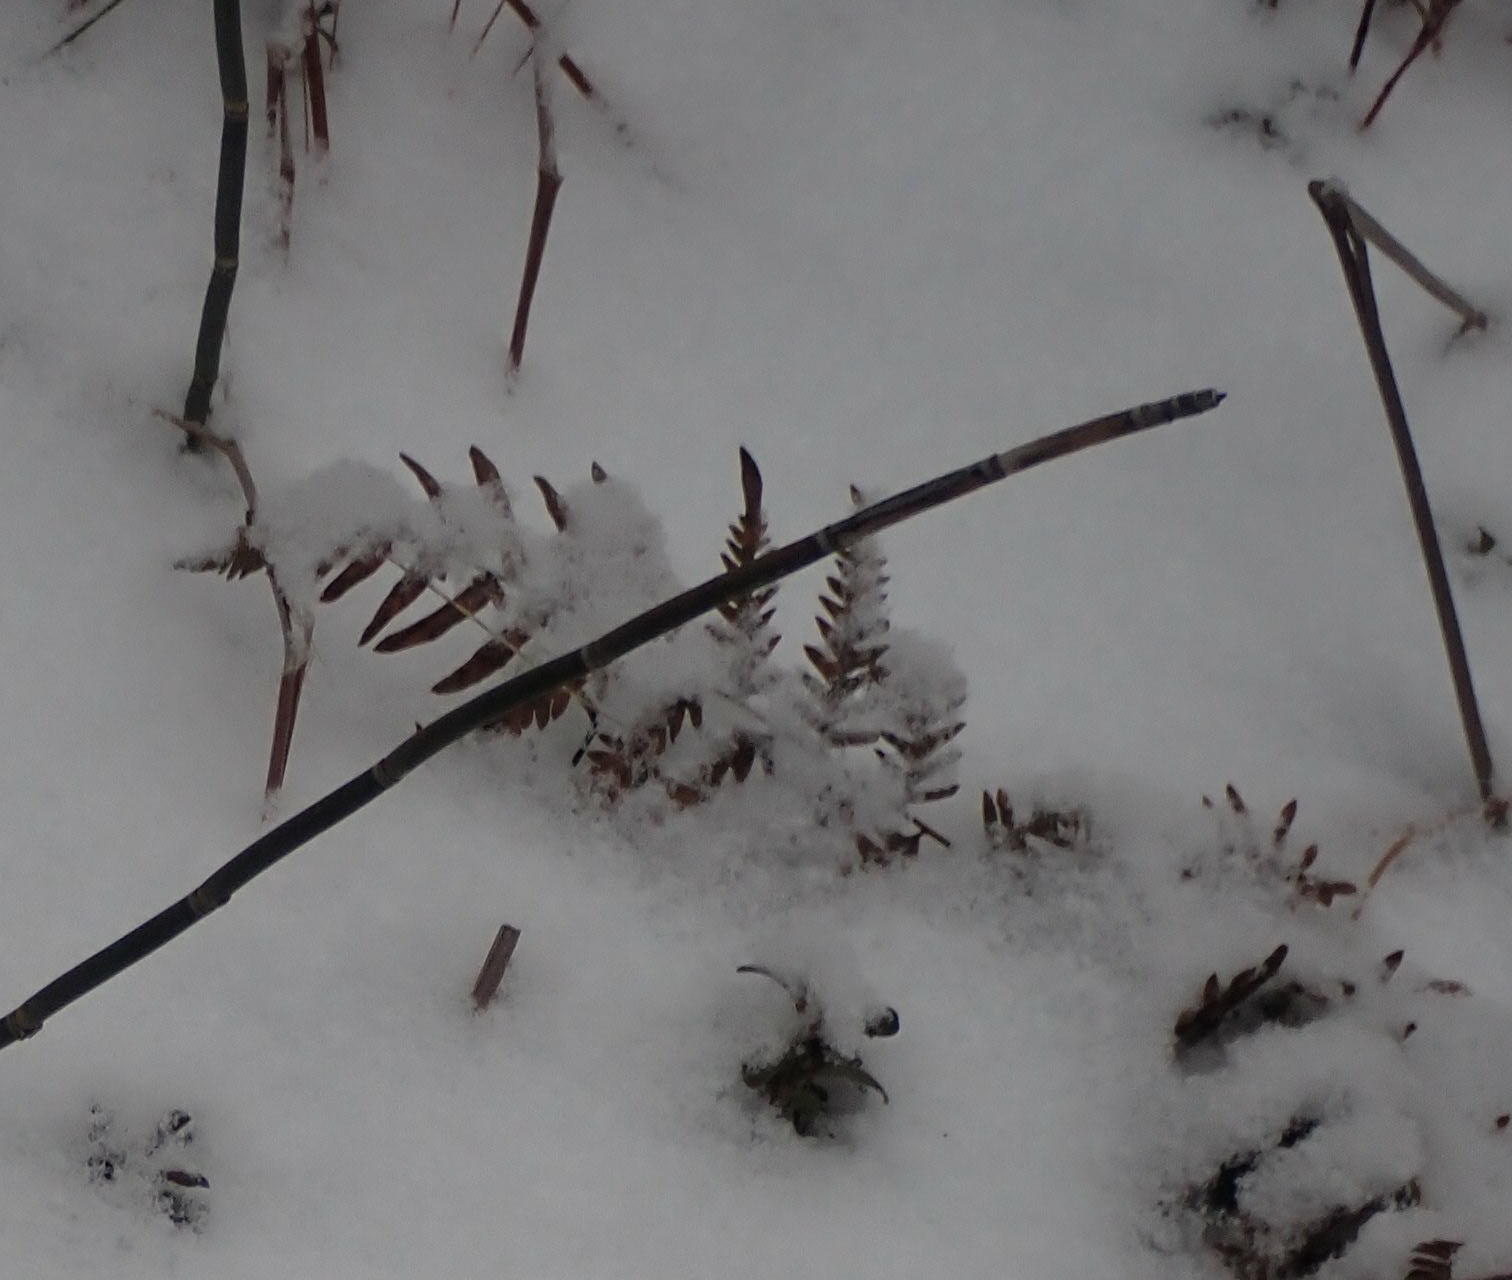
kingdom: Plantae
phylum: Tracheophyta
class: Polypodiopsida
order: Polypodiales
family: Dennstaedtiaceae
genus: Pteridium
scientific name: Pteridium aquilinum
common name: Bracken
